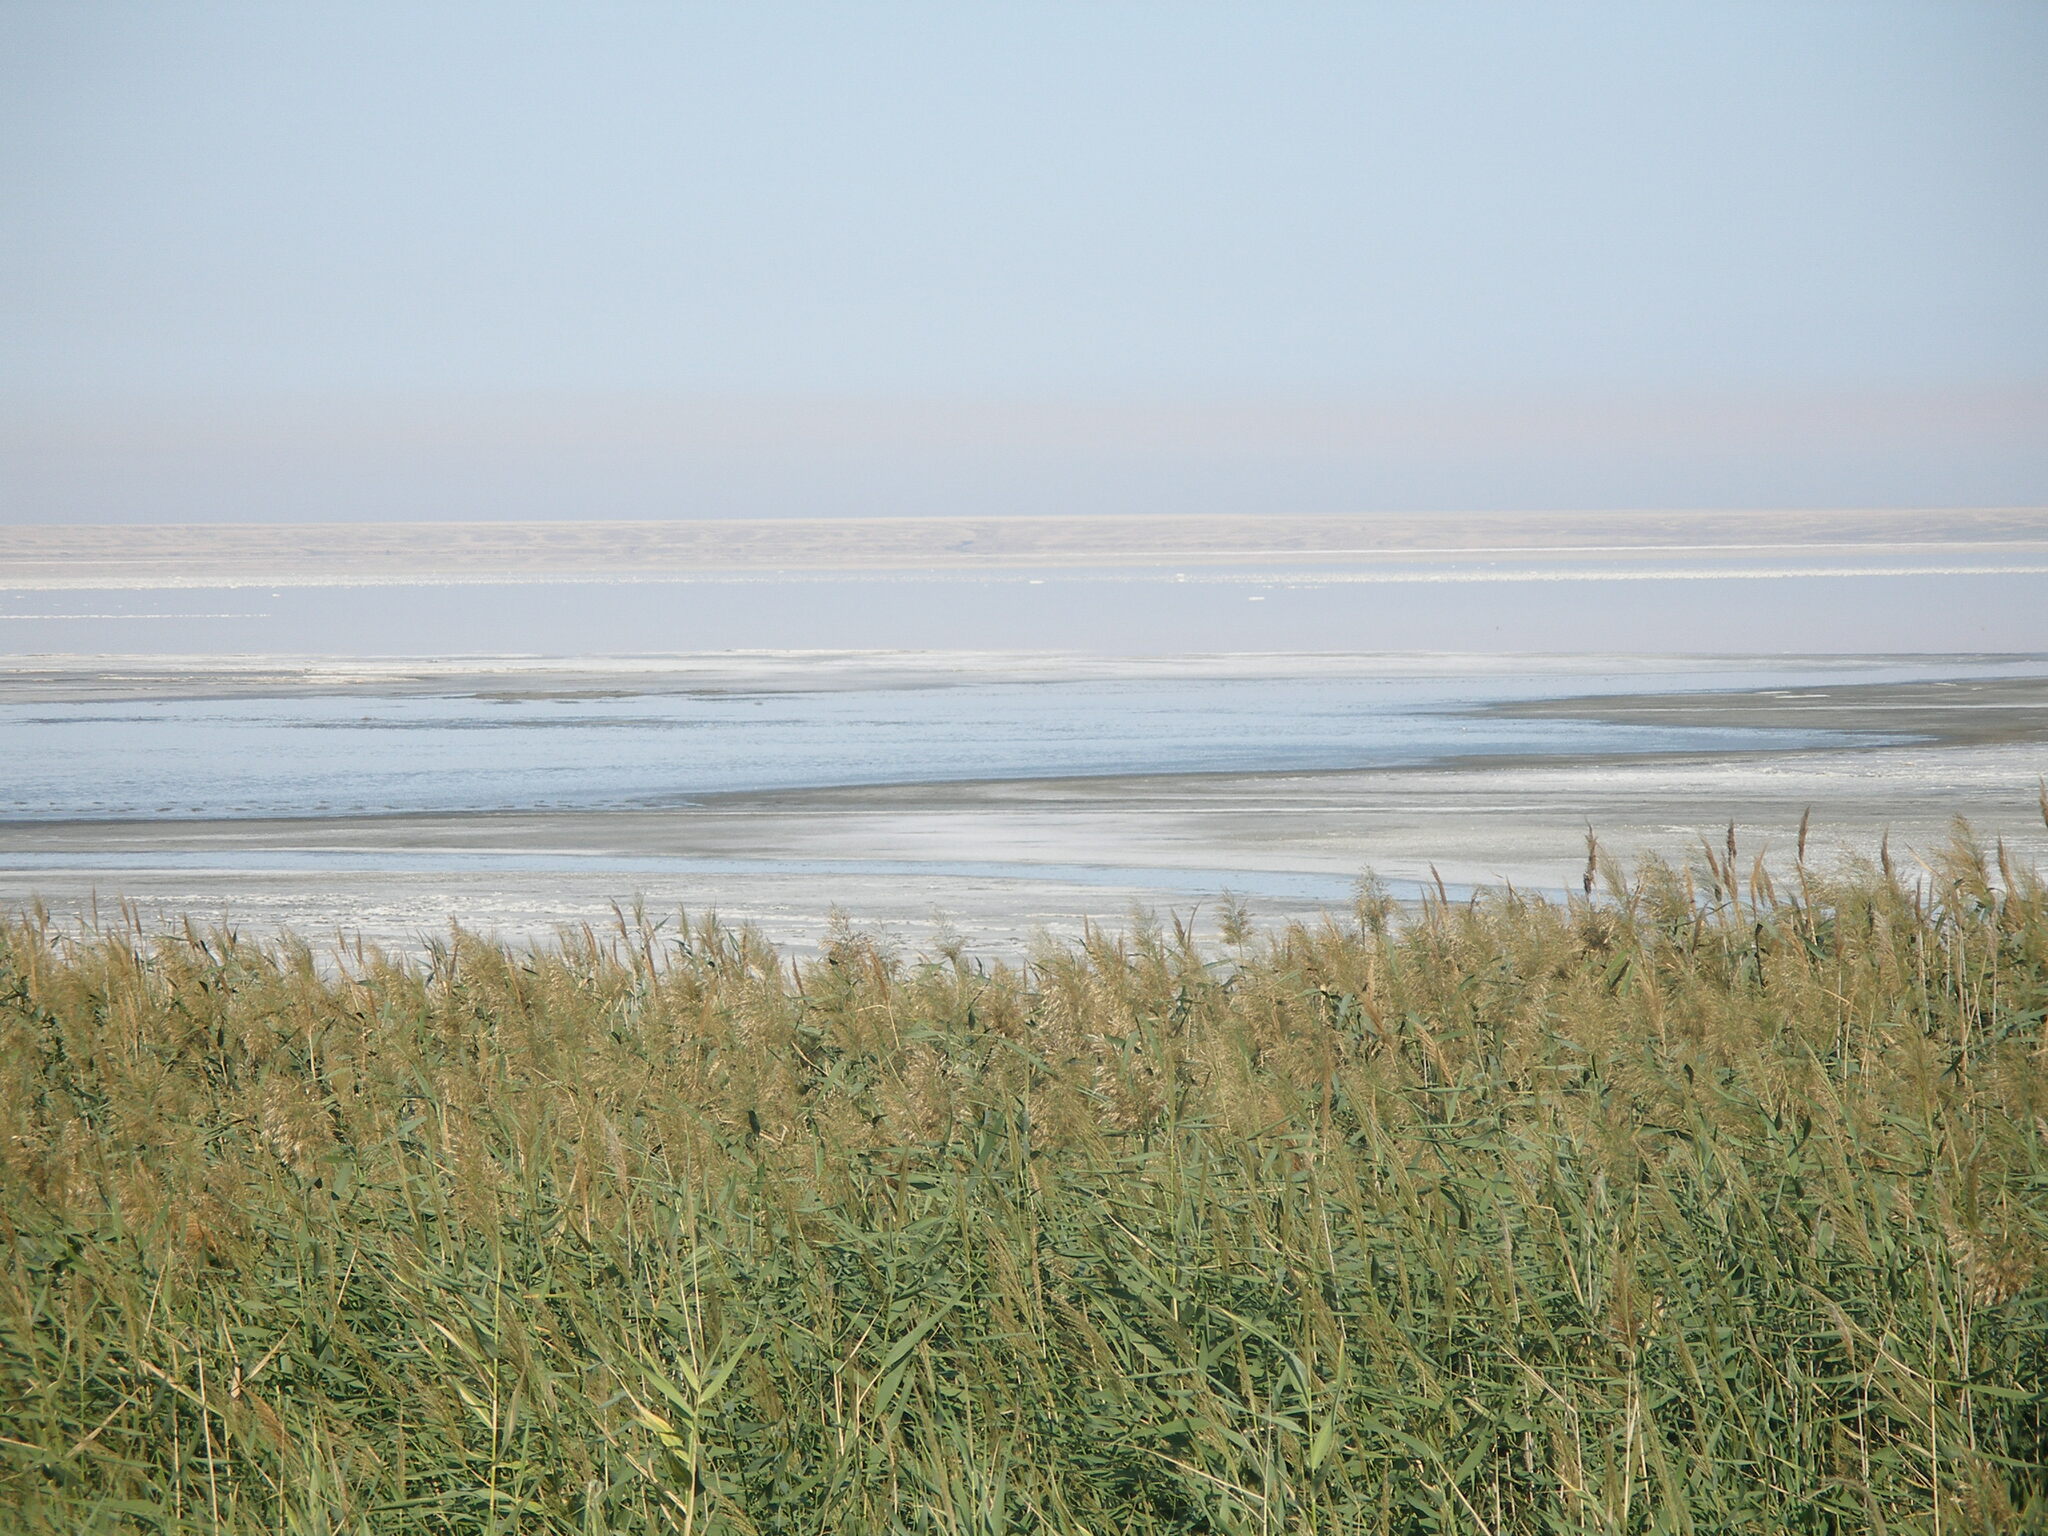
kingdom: Plantae
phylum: Tracheophyta
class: Liliopsida
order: Poales
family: Poaceae
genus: Phragmites
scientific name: Phragmites australis
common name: Common reed
